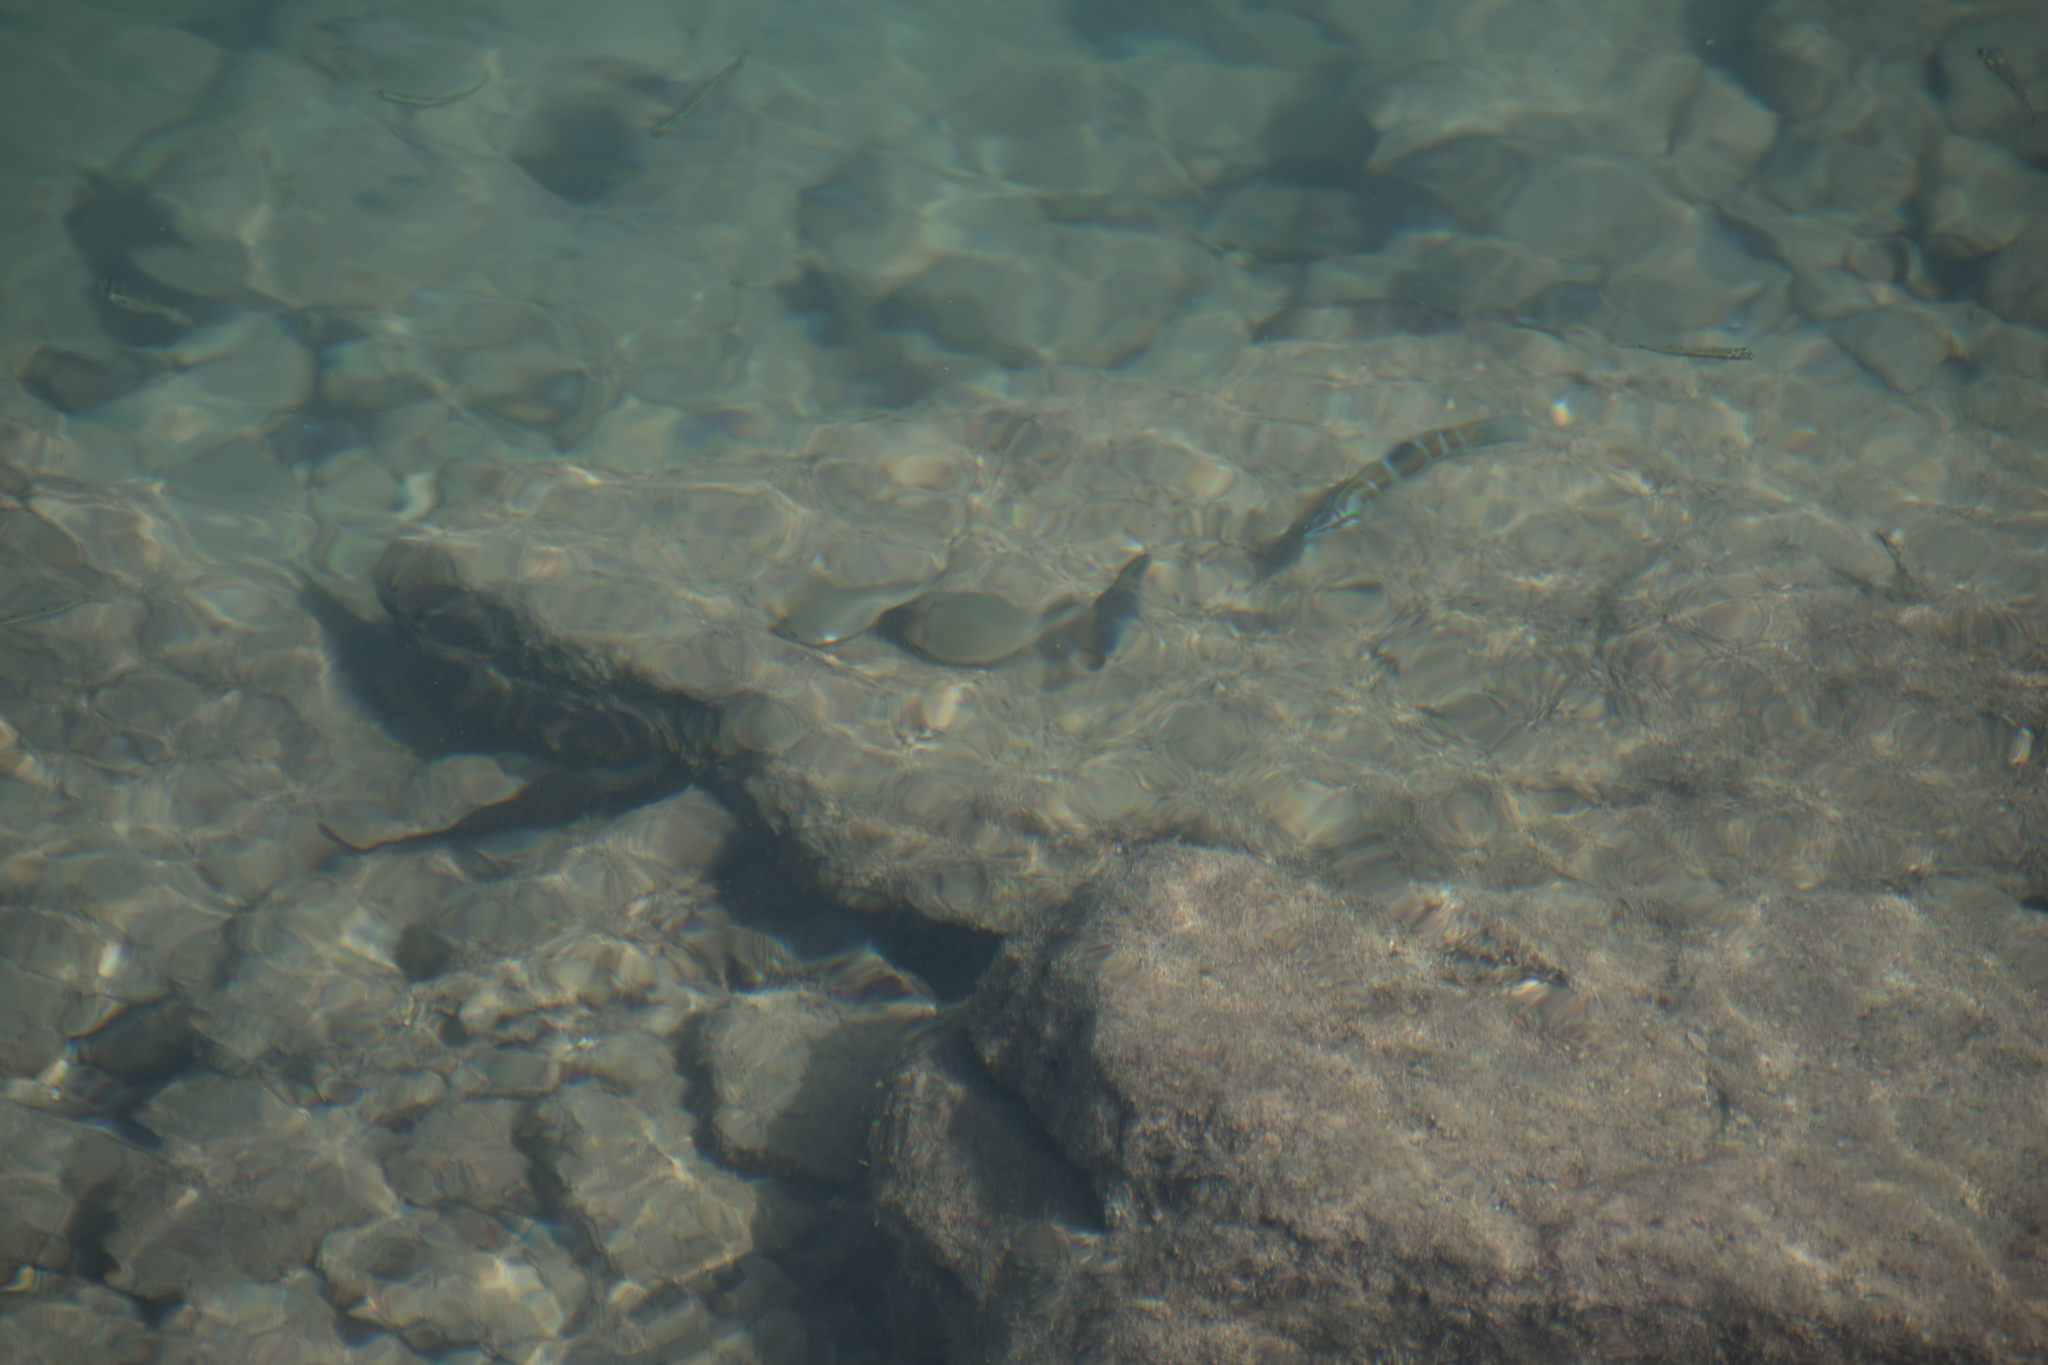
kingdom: Animalia
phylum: Chordata
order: Perciformes
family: Labridae
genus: Thalassoma
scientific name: Thalassoma pavo
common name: Ornate wrasse
